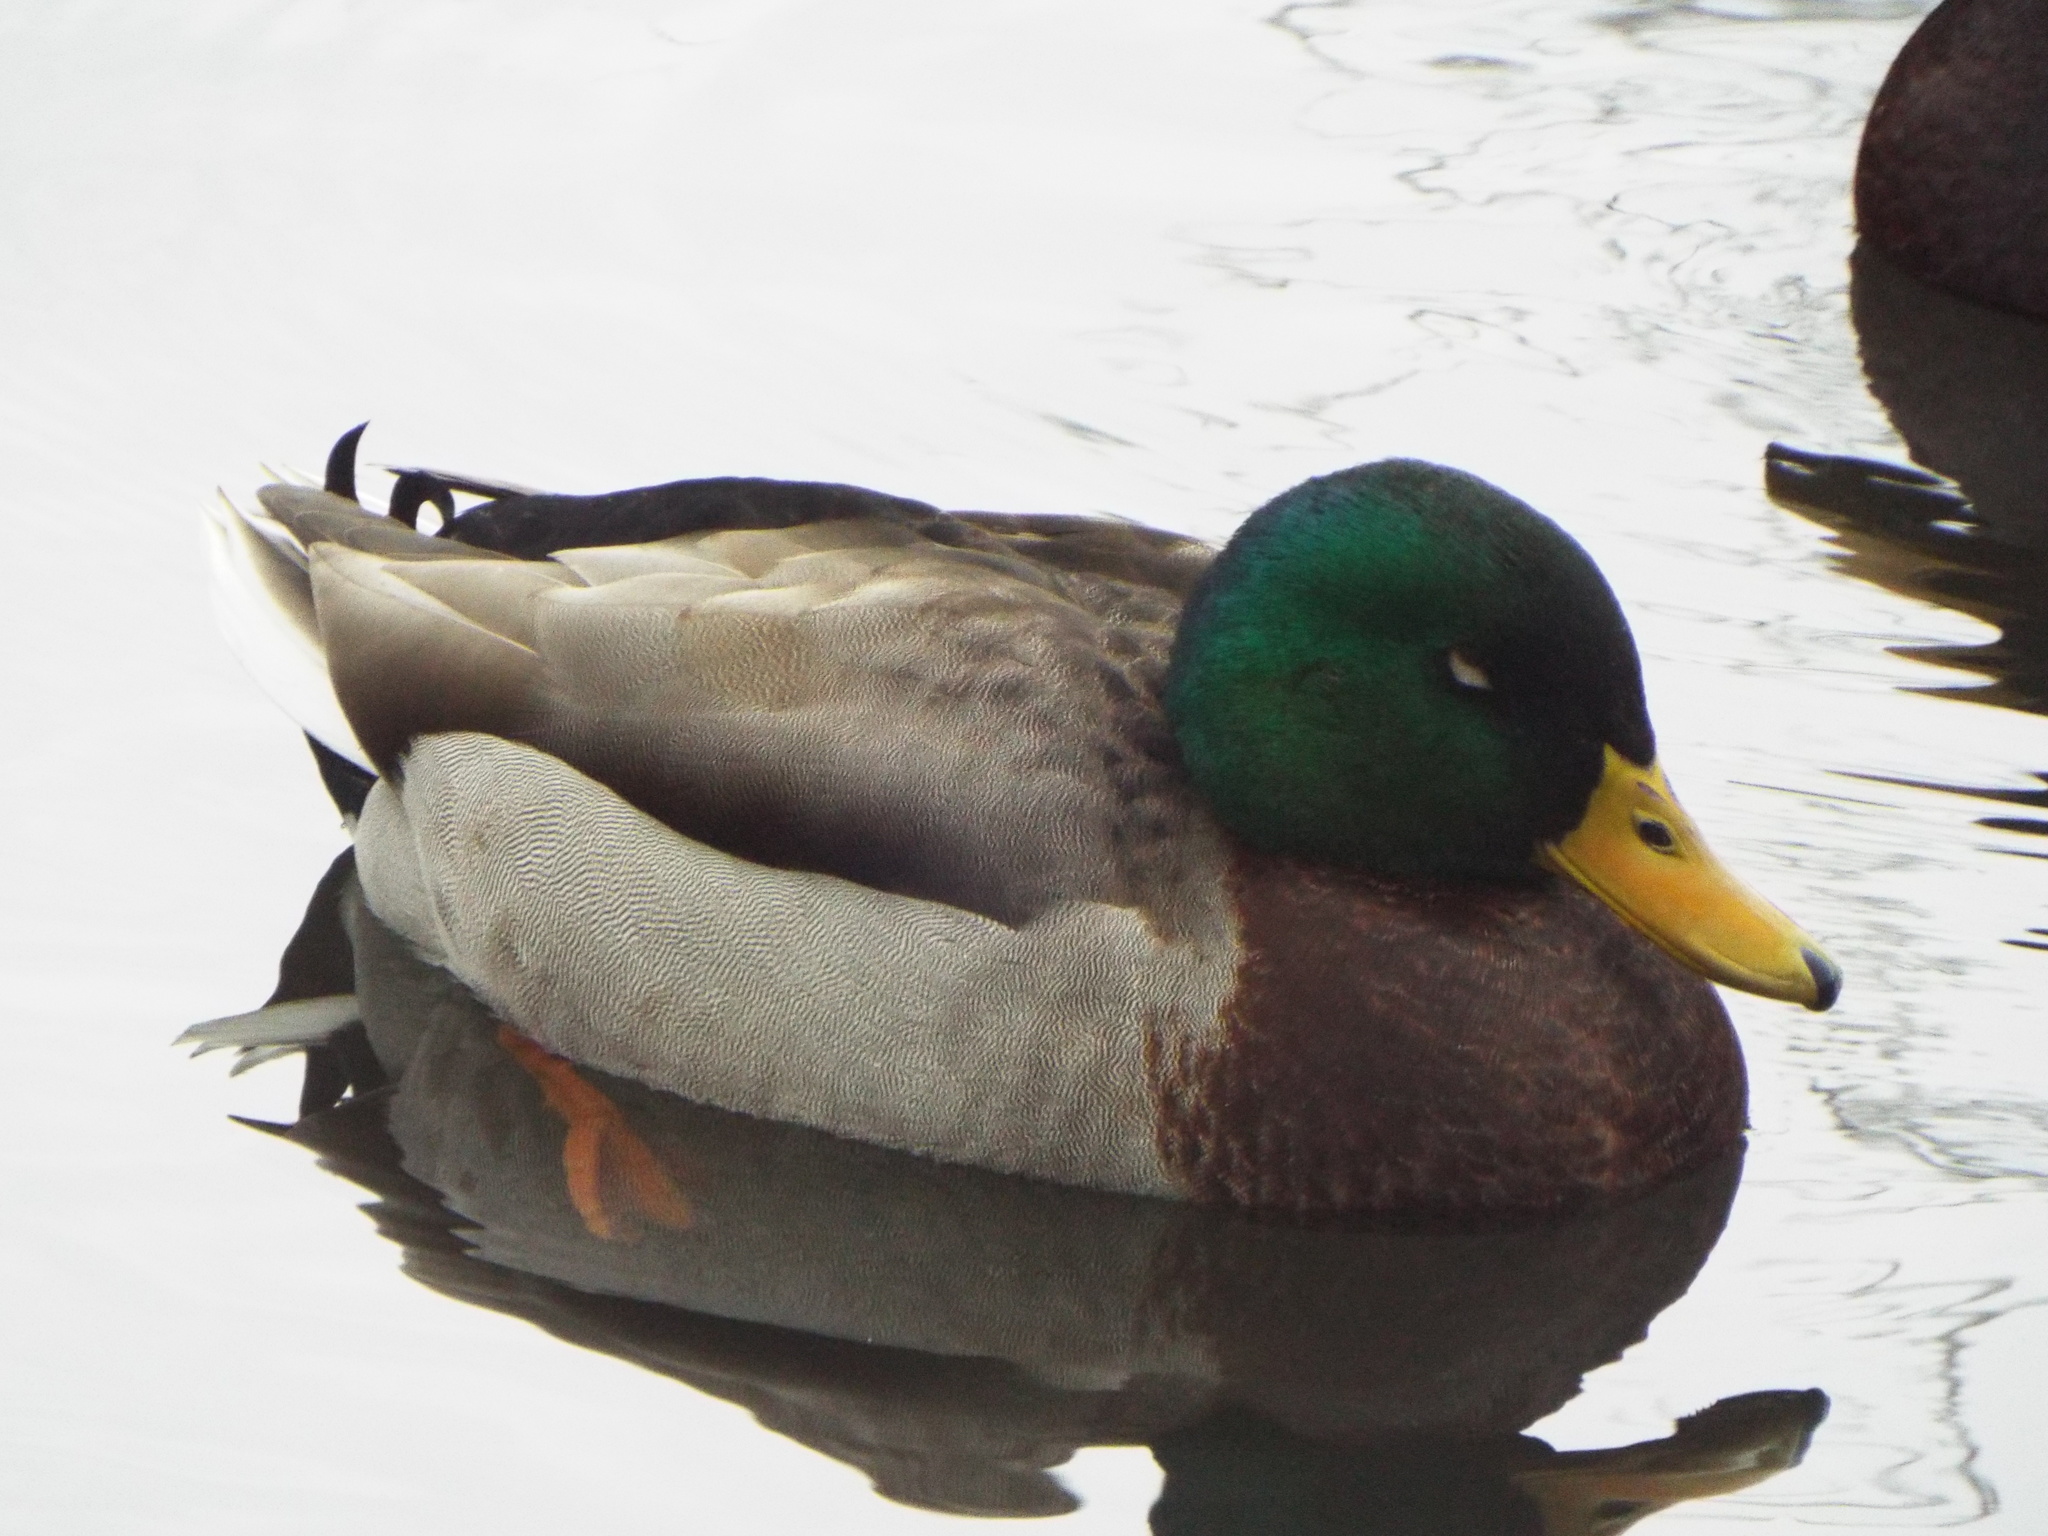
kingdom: Animalia
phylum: Chordata
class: Aves
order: Anseriformes
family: Anatidae
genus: Anas
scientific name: Anas platyrhynchos
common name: Mallard
